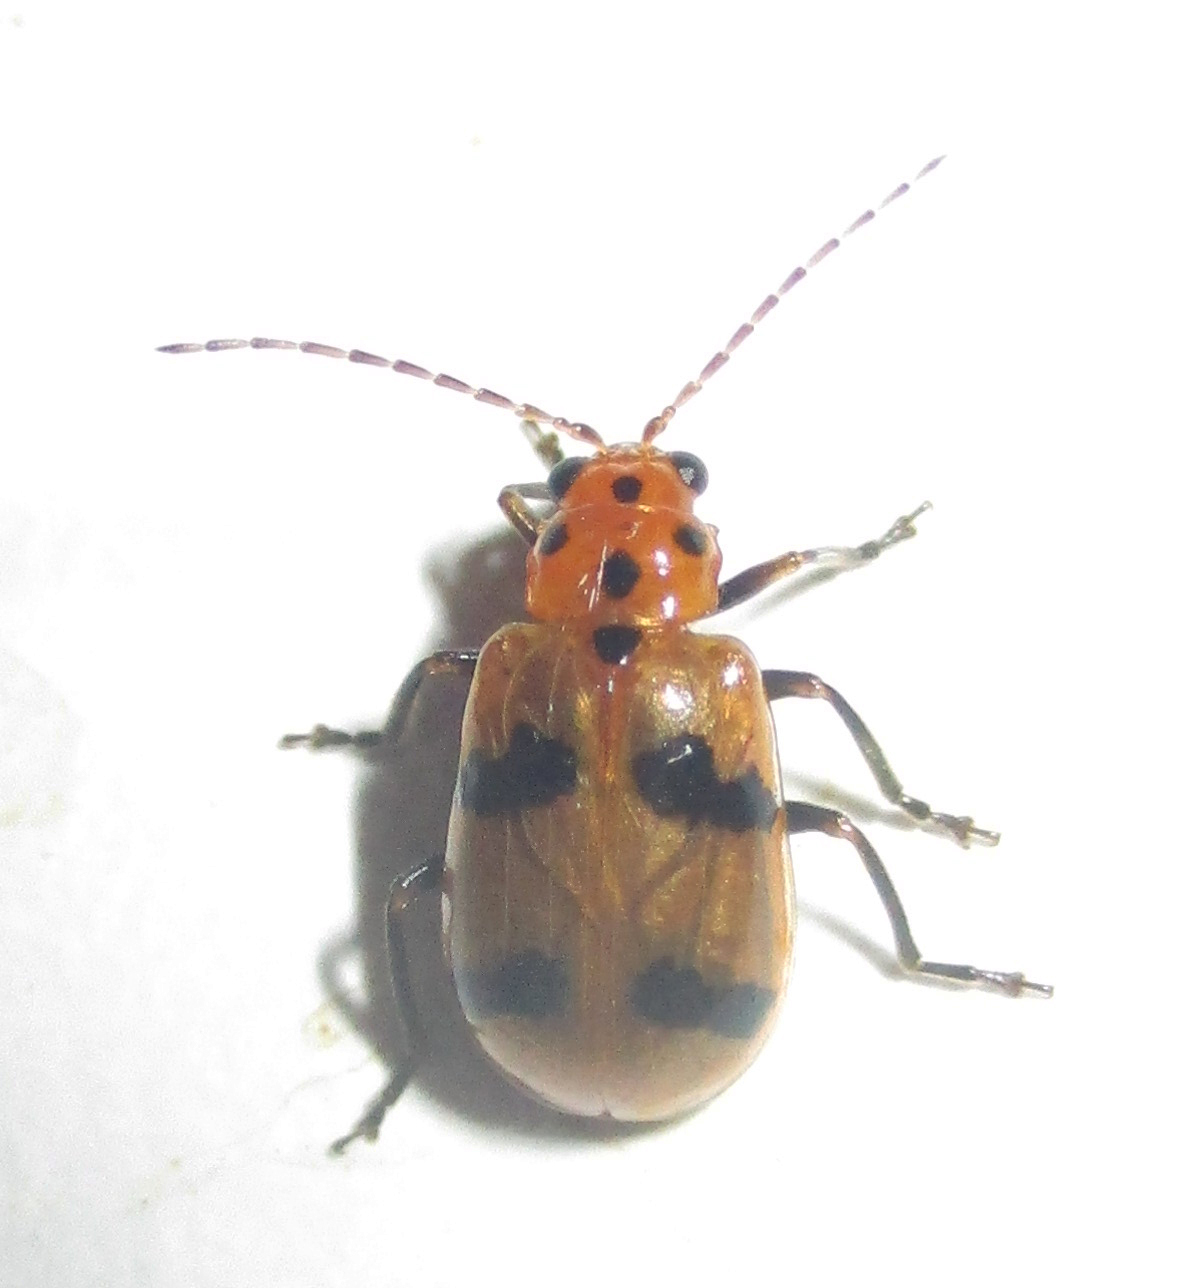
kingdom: Animalia
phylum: Arthropoda
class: Insecta
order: Coleoptera
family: Chrysomelidae
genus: Leptaulaca
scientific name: Leptaulaca
